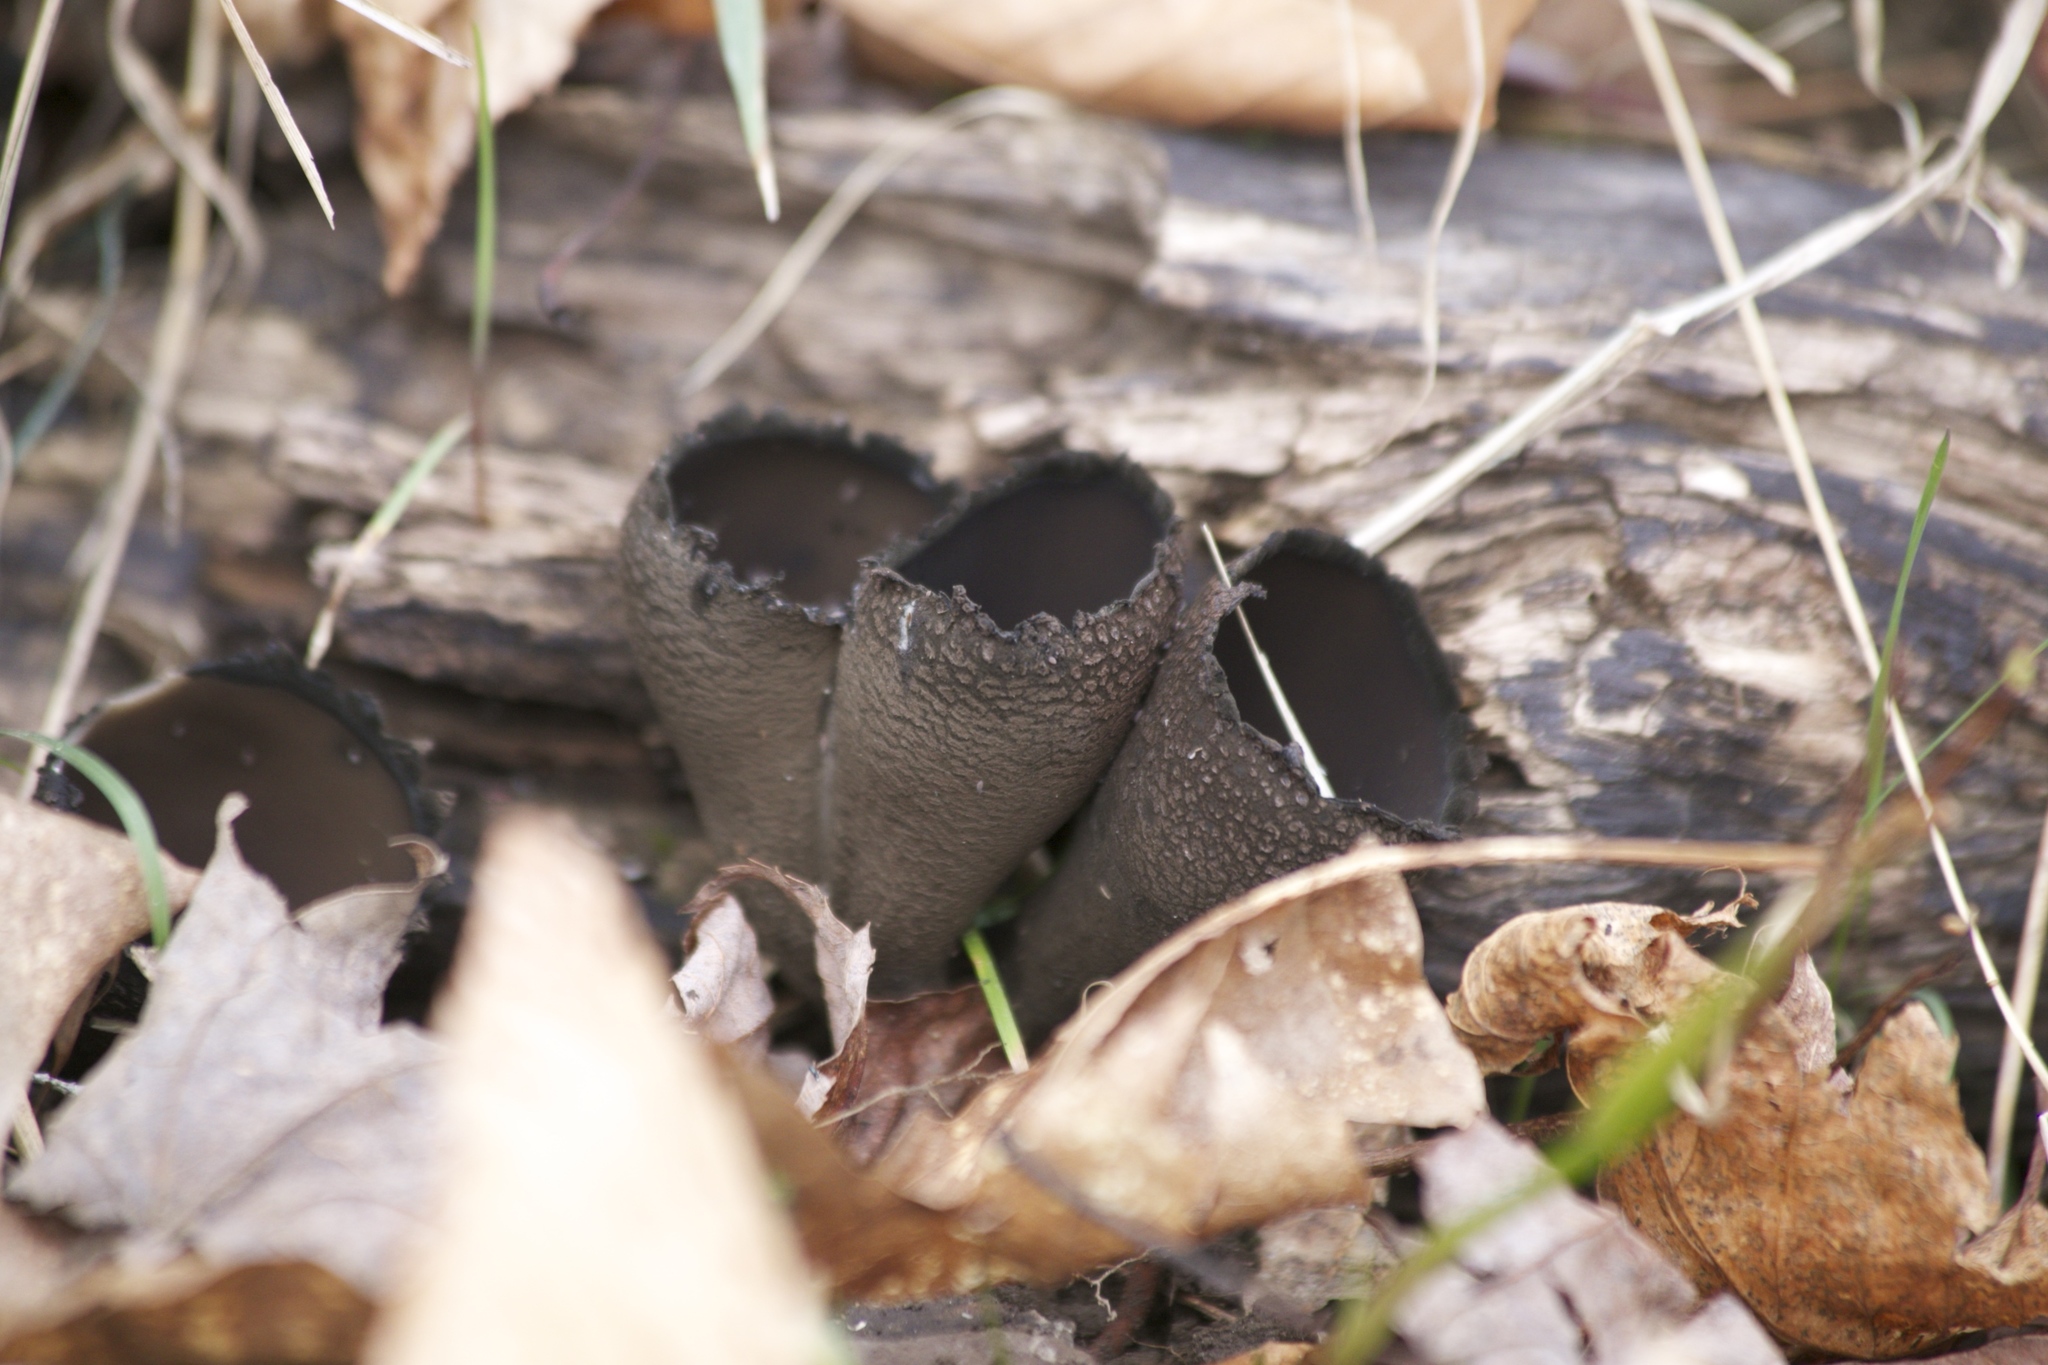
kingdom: Fungi
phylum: Ascomycota
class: Pezizomycetes
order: Pezizales
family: Sarcosomataceae
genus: Urnula
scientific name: Urnula craterium
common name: Devil's urn
